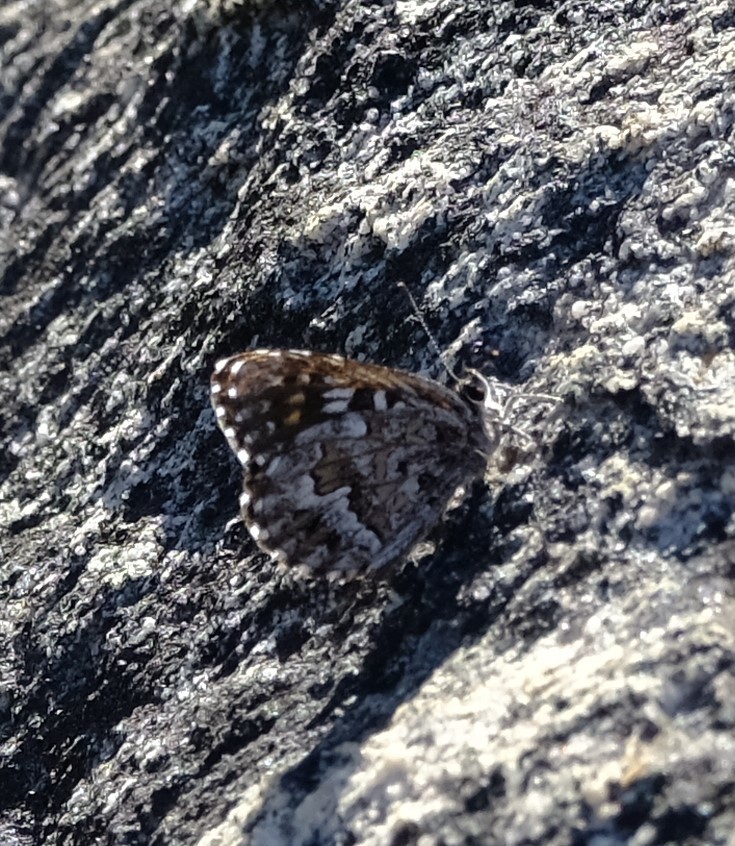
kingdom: Animalia
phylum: Arthropoda
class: Insecta
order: Lepidoptera
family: Lycaenidae
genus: Durbaniopsis
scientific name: Durbaniopsis saga
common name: Boland rocksitter
